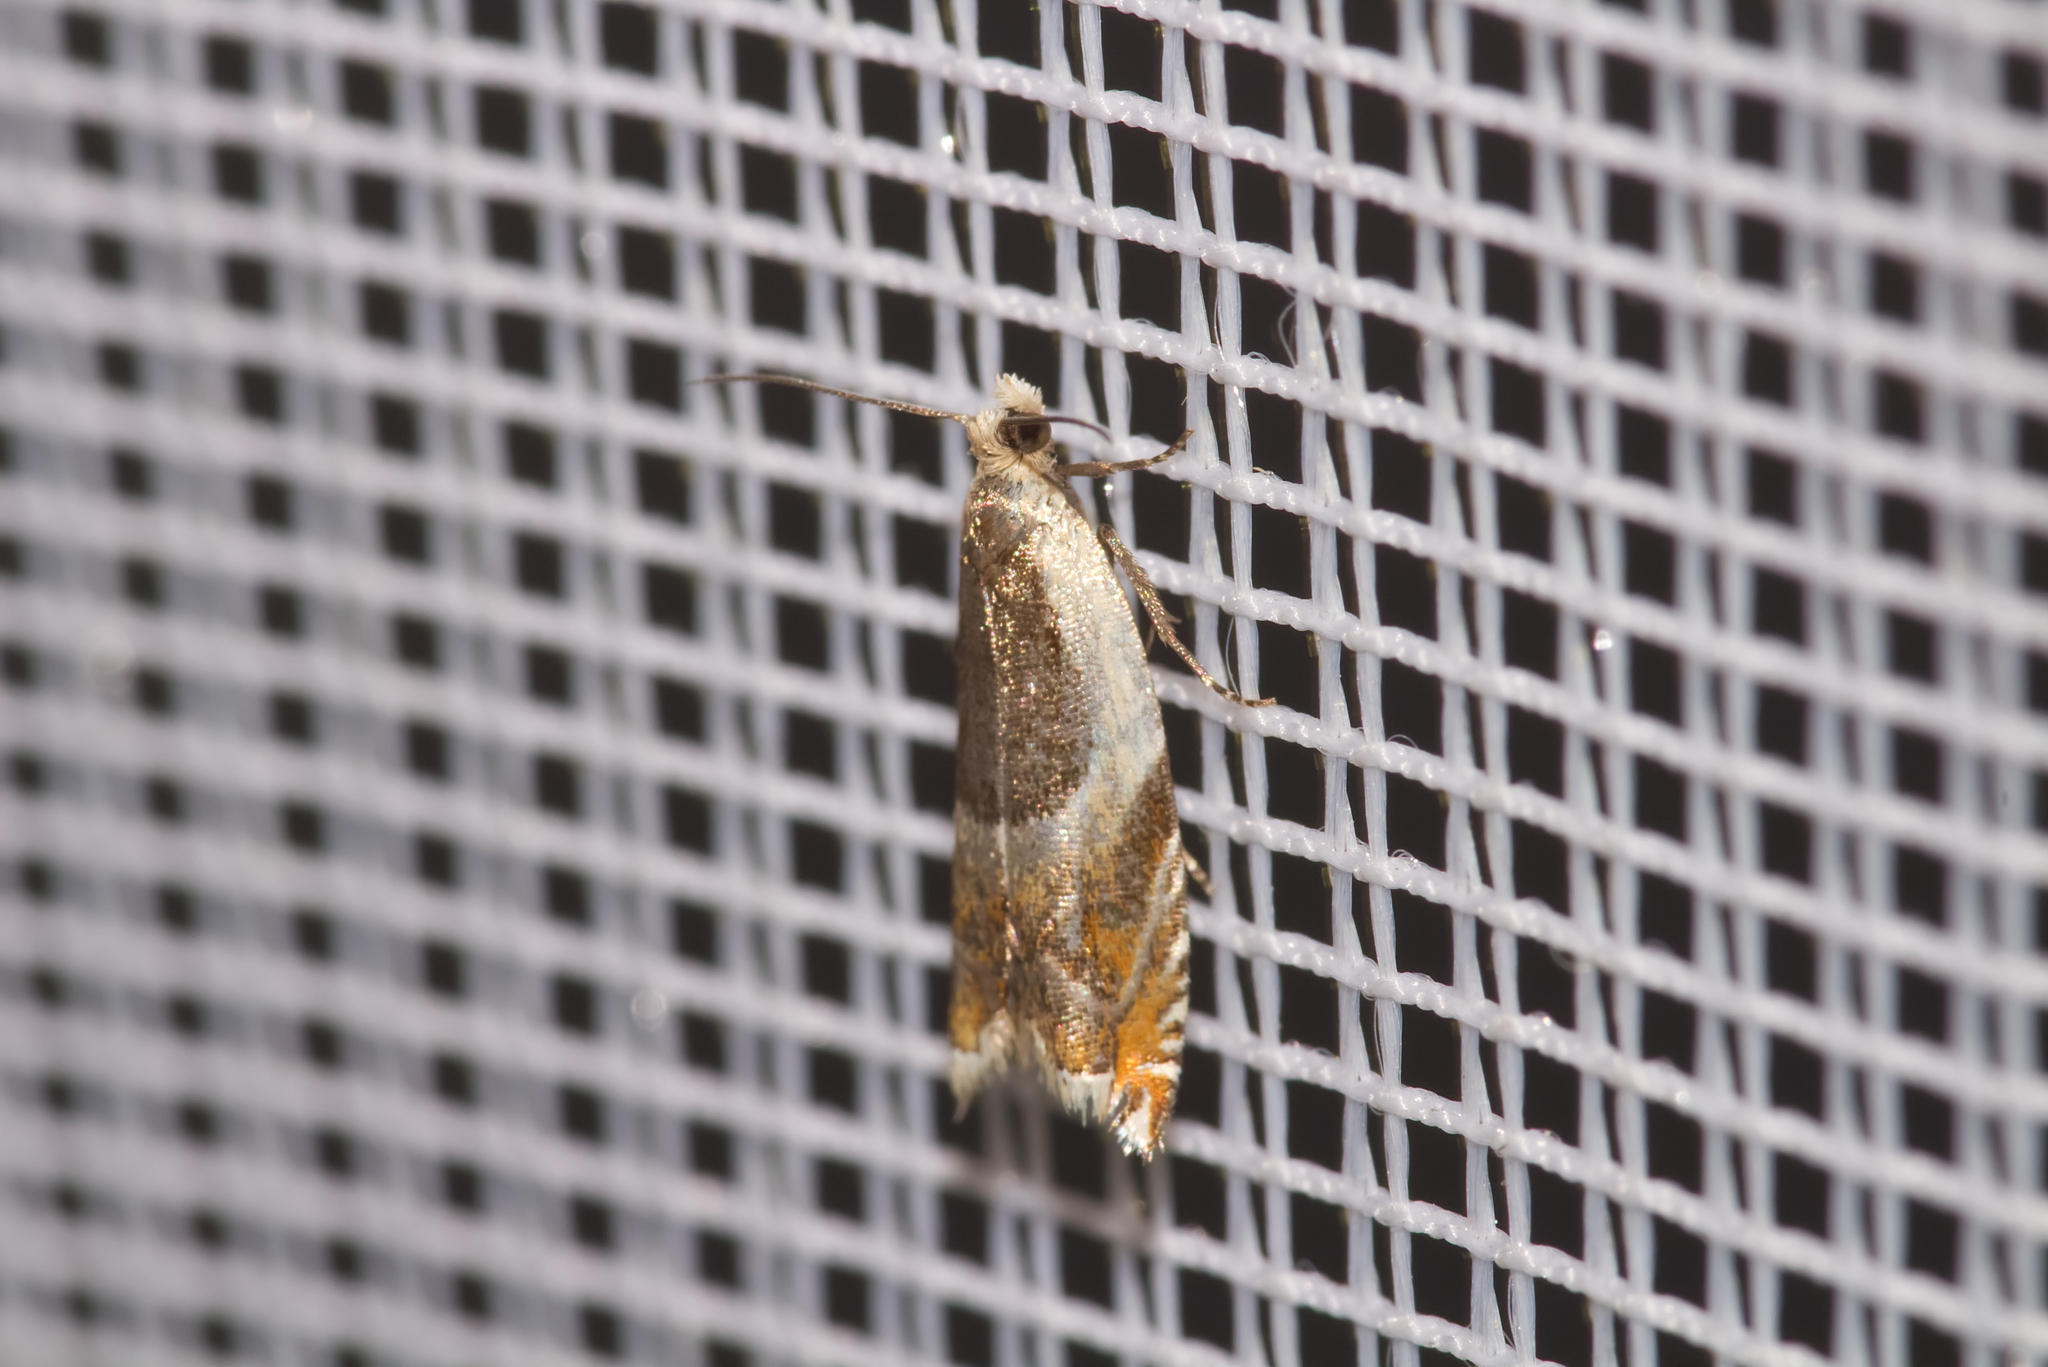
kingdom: Animalia
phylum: Arthropoda
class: Insecta
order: Lepidoptera
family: Tortricidae
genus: Ancylis
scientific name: Ancylis unculana
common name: Buckthorn roller
